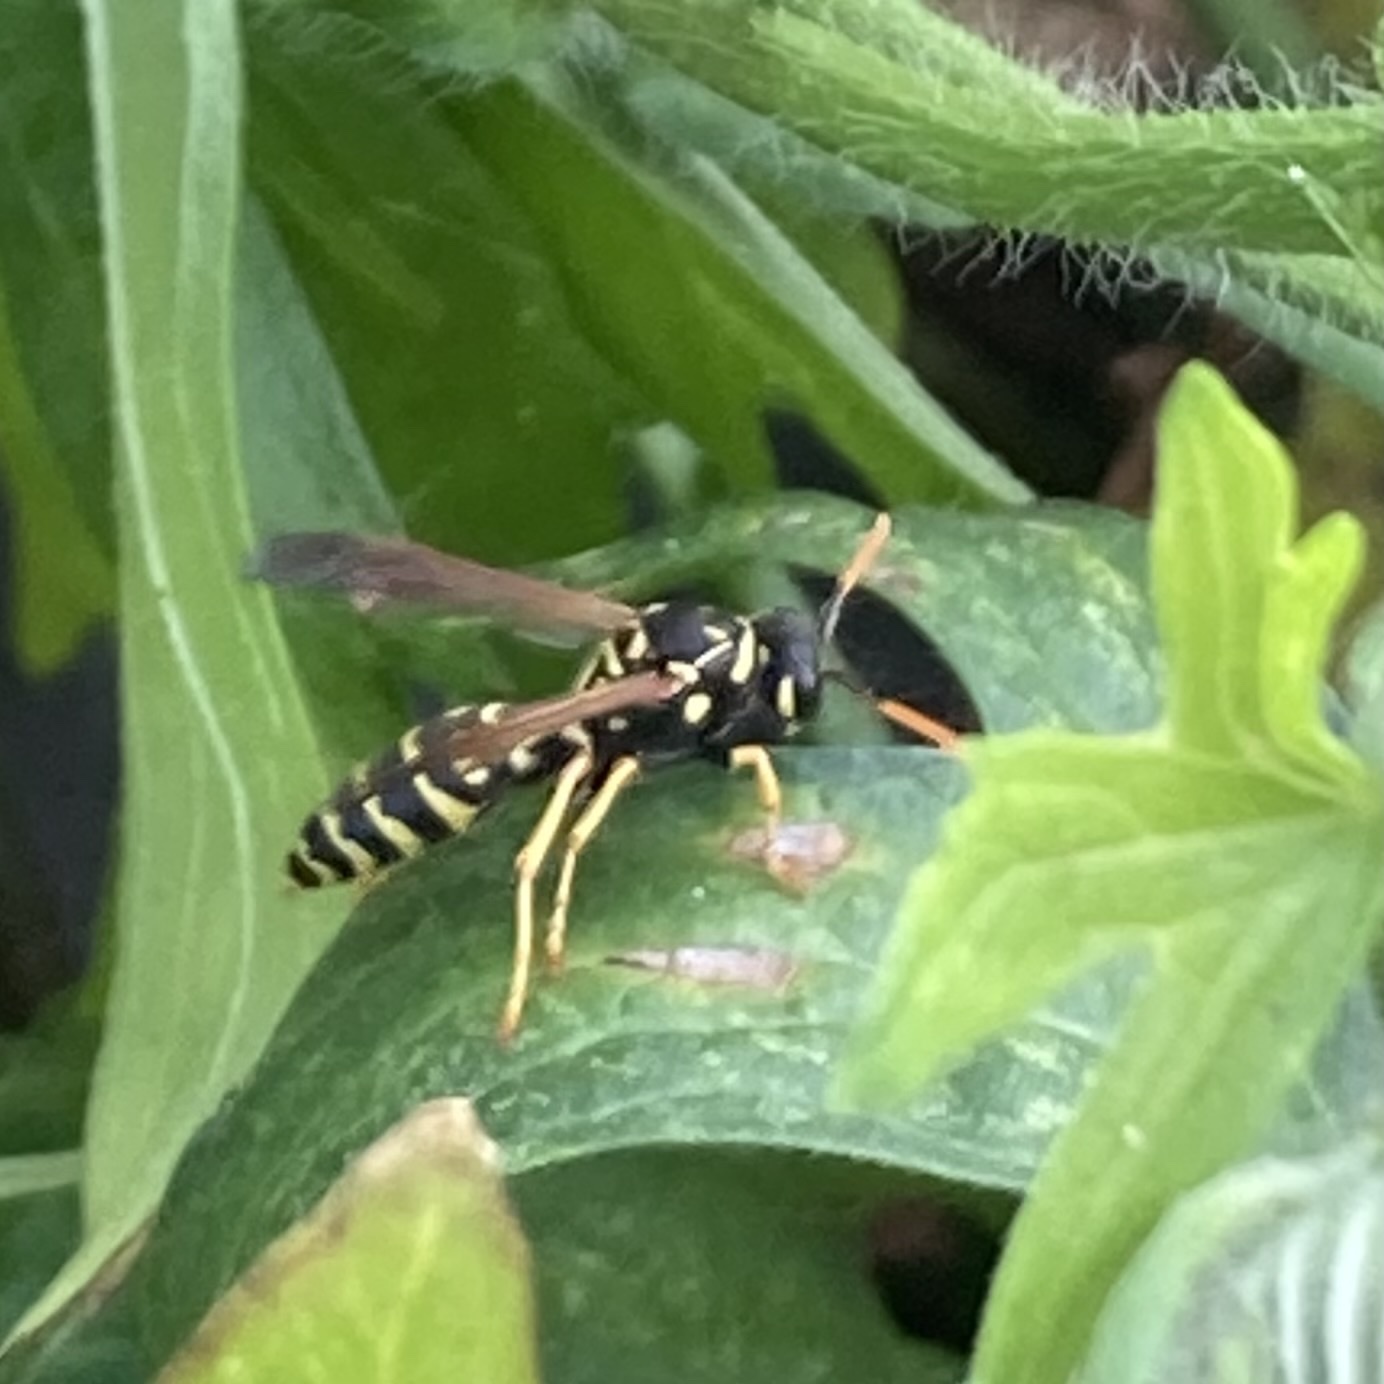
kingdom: Animalia
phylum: Arthropoda
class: Insecta
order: Hymenoptera
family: Eumenidae
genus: Polistes
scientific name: Polistes dominula
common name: Paper wasp
